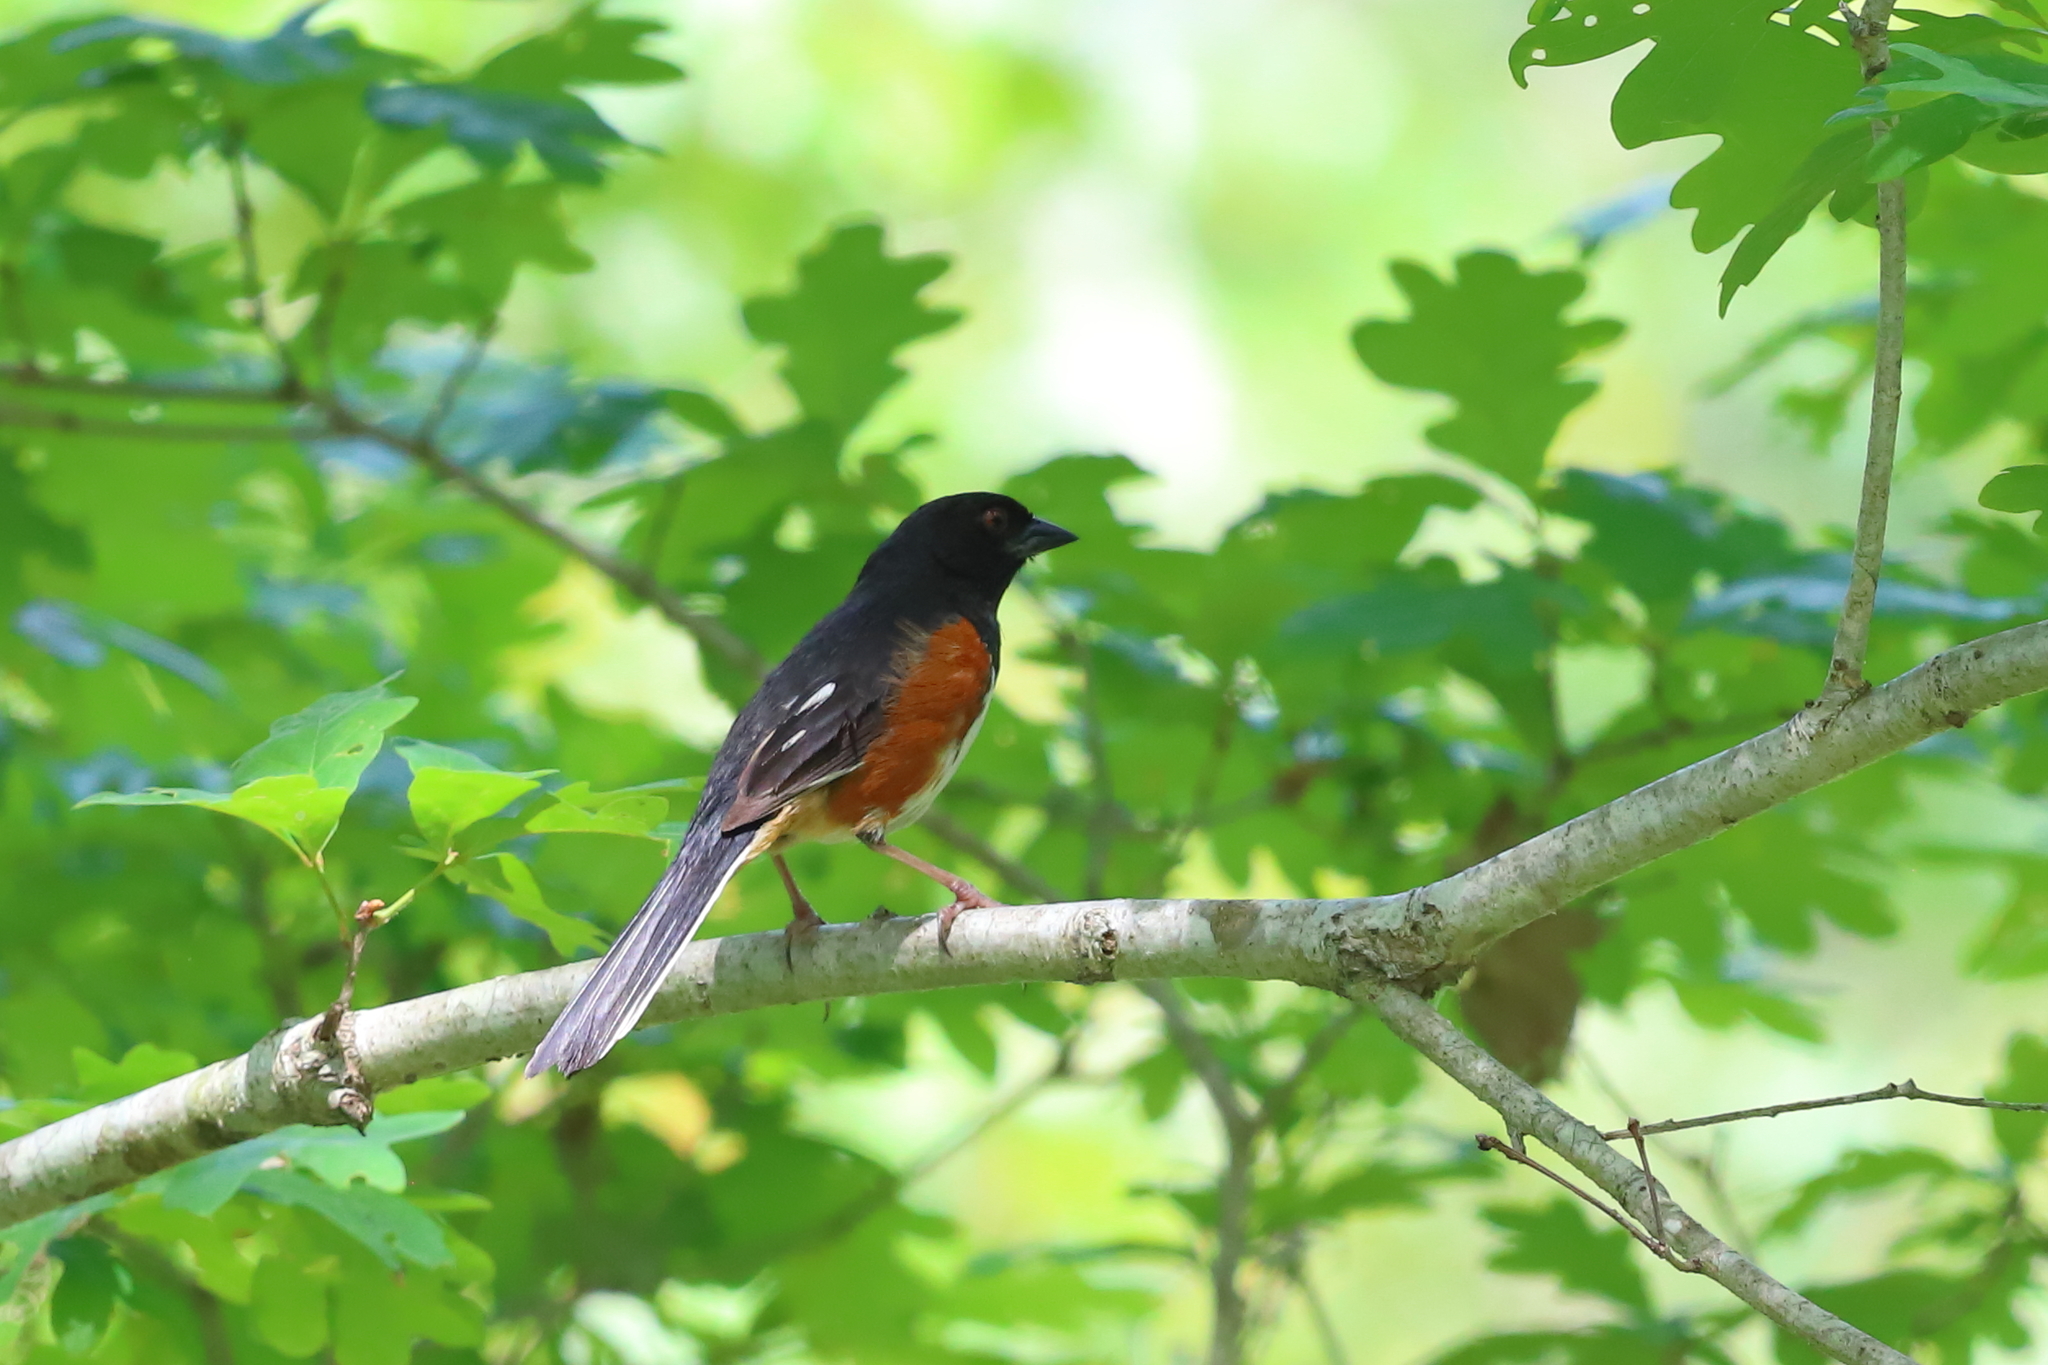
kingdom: Animalia
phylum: Chordata
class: Aves
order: Passeriformes
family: Passerellidae
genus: Pipilo
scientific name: Pipilo erythrophthalmus
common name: Eastern towhee
